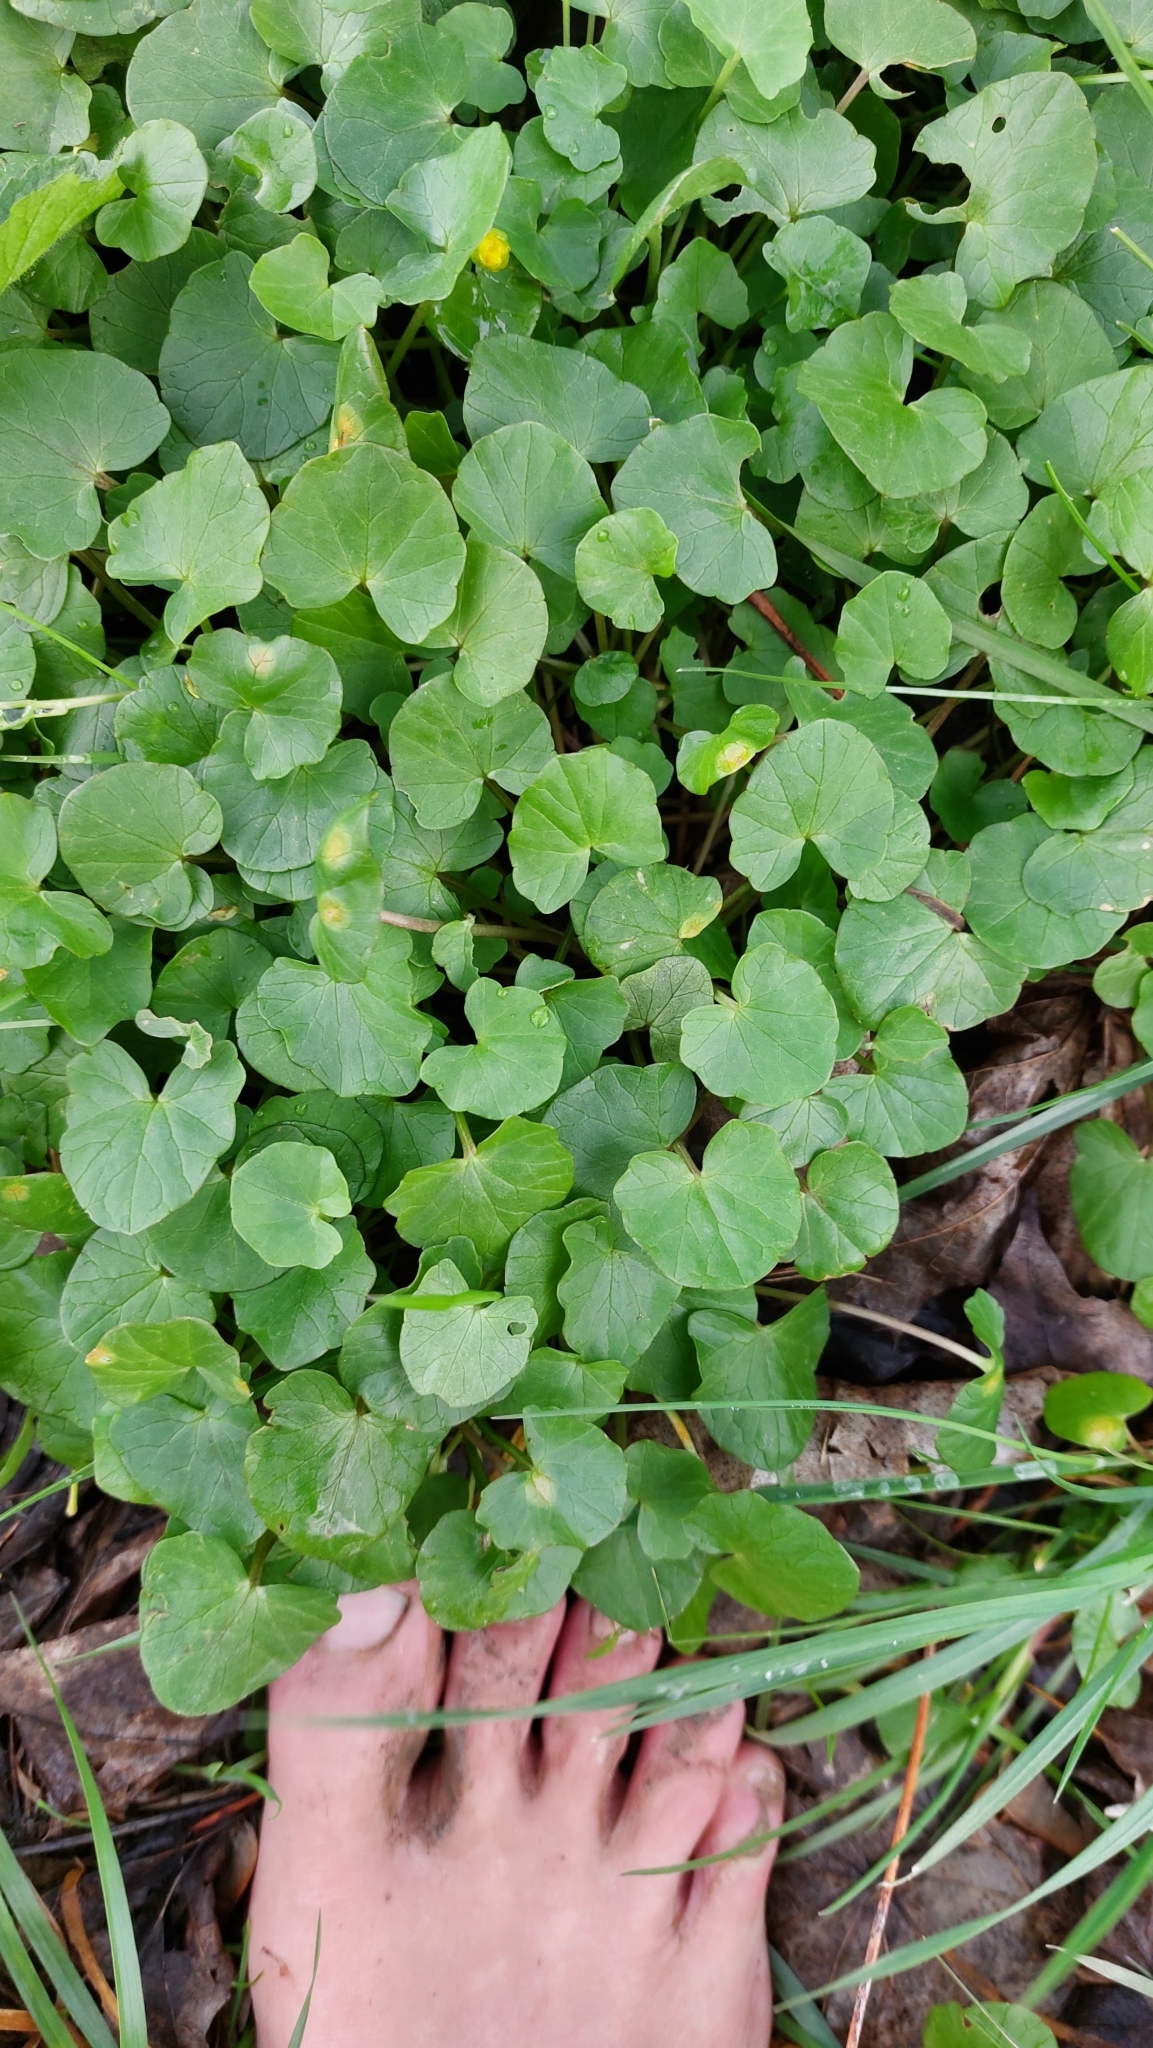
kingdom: Plantae
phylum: Tracheophyta
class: Magnoliopsida
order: Ranunculales
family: Ranunculaceae
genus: Ficaria
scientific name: Ficaria verna
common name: Lesser celandine
